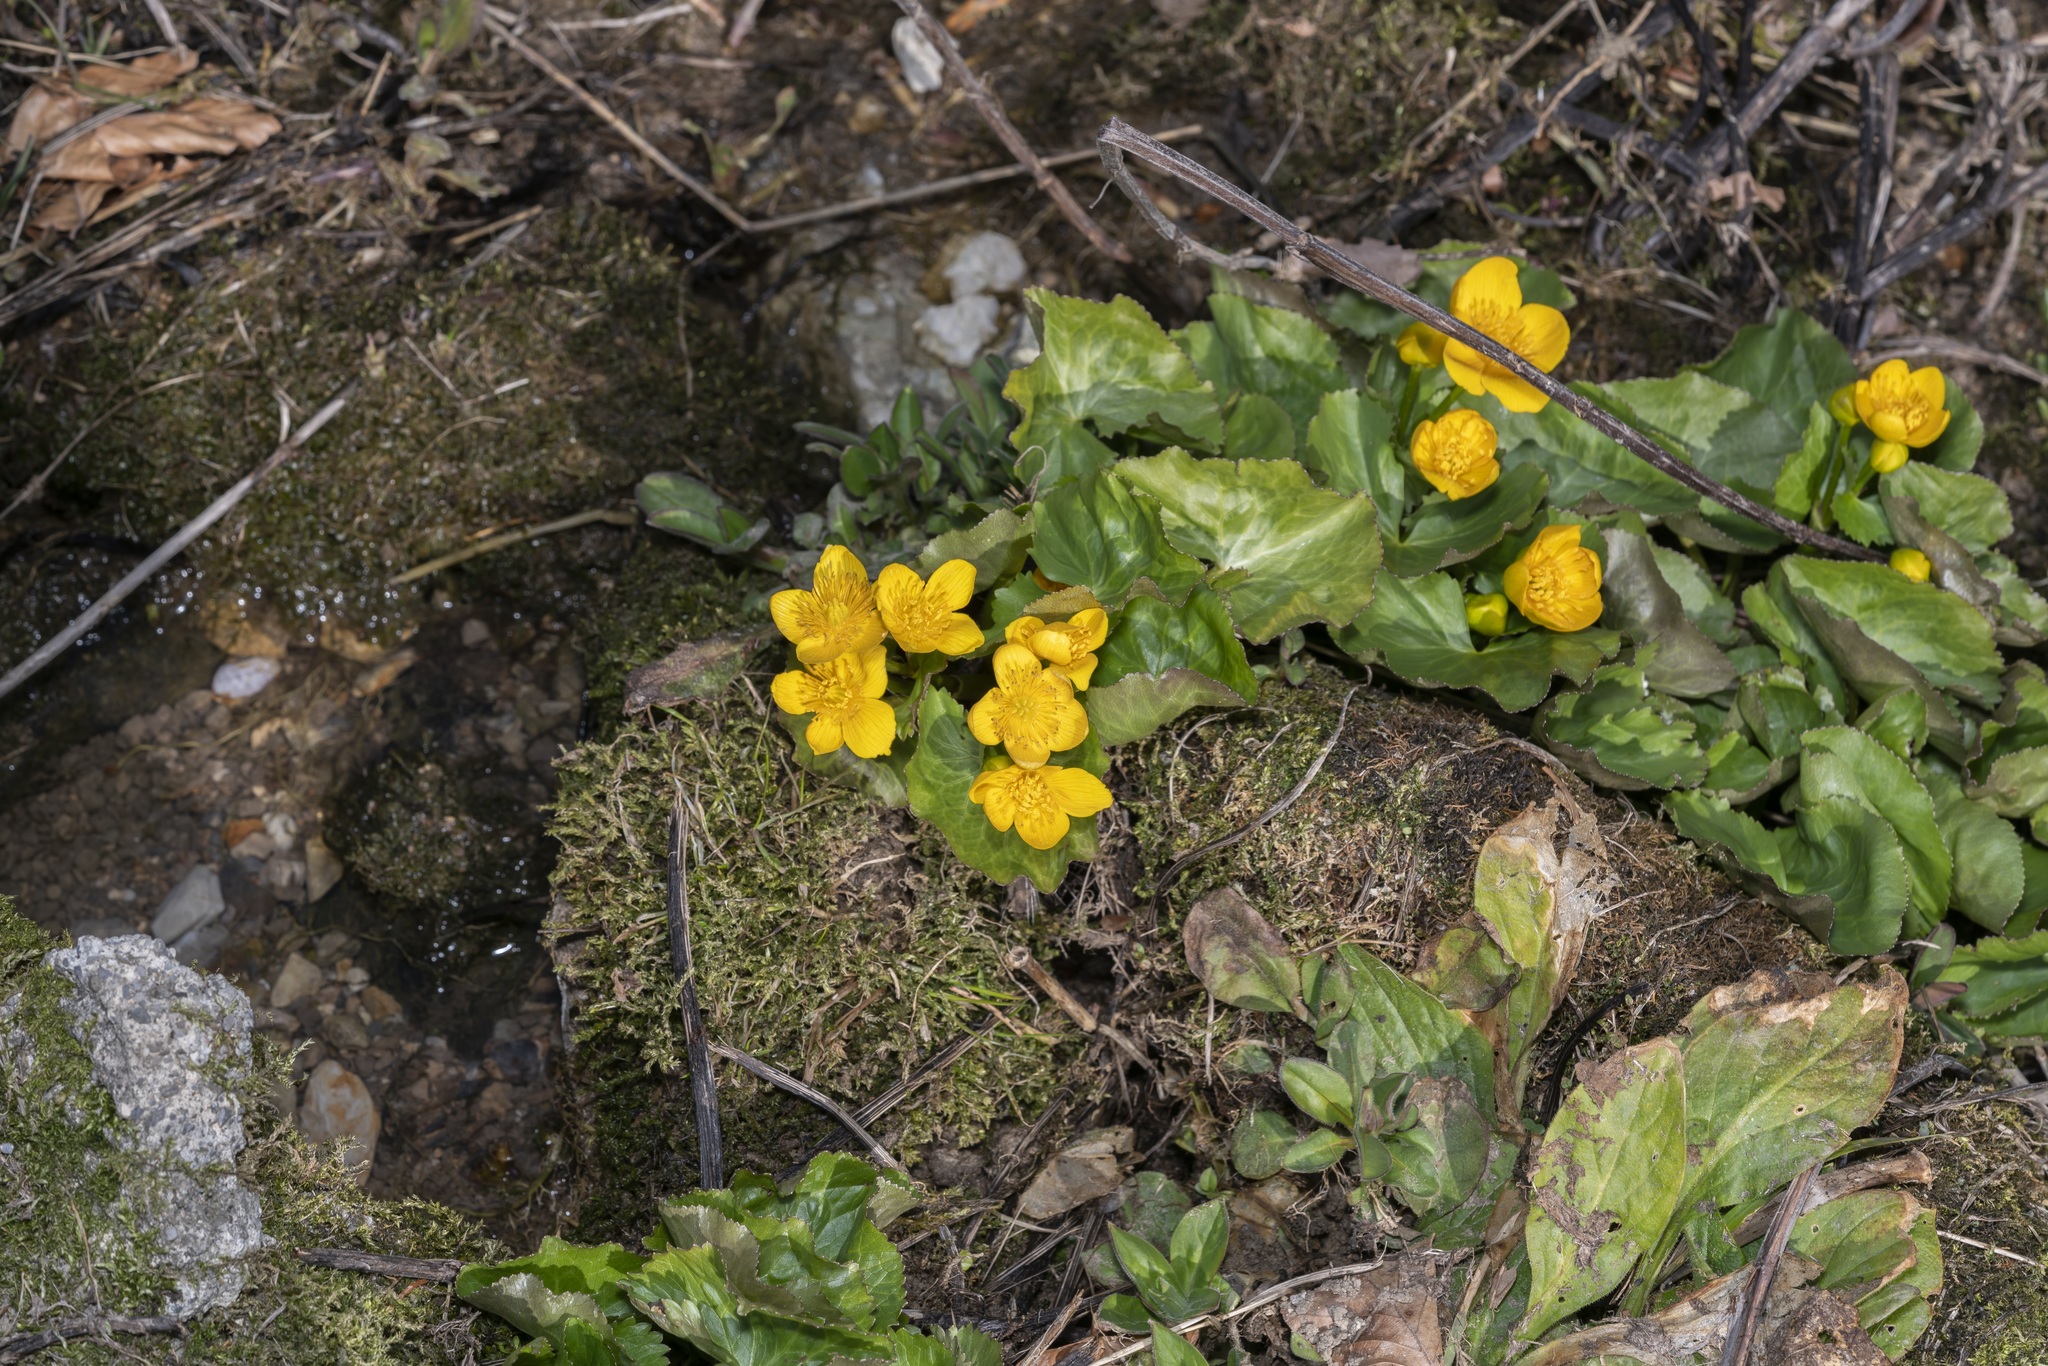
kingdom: Plantae
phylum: Tracheophyta
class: Magnoliopsida
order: Ranunculales
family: Ranunculaceae
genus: Caltha
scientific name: Caltha palustris
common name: Marsh marigold
